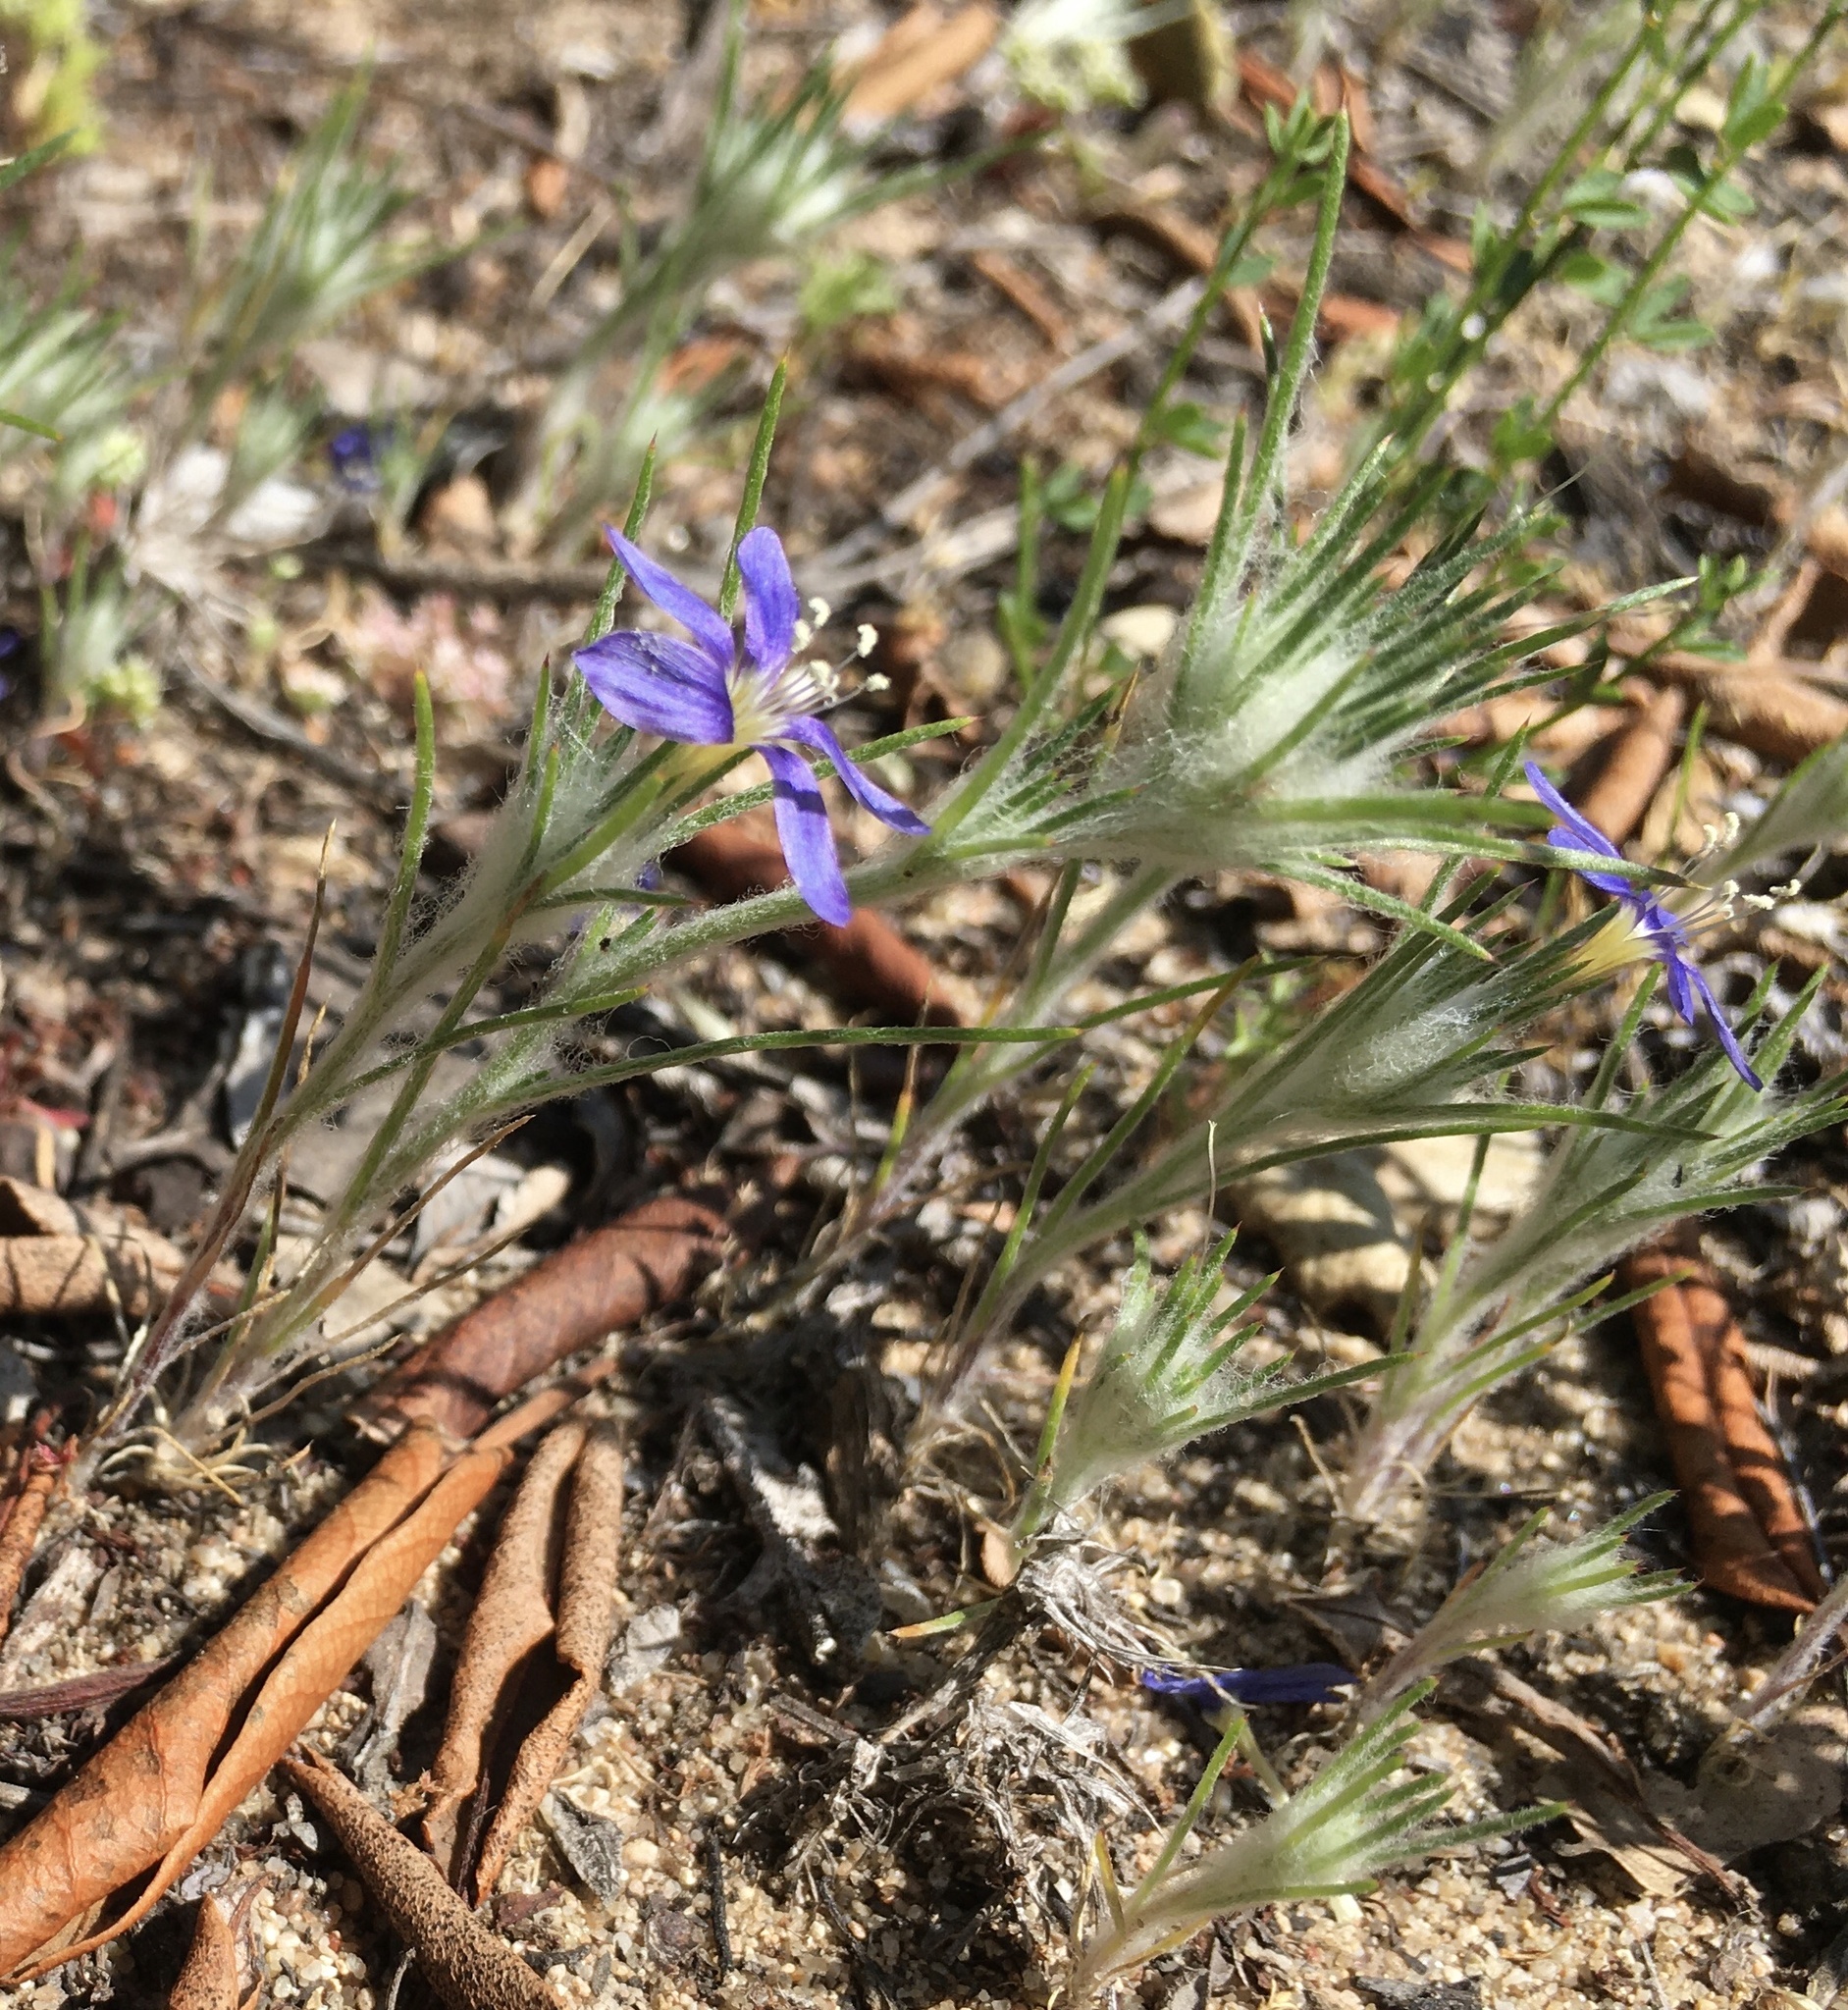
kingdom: Plantae
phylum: Tracheophyta
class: Magnoliopsida
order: Ericales
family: Polemoniaceae
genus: Eriastrum
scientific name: Eriastrum virgatum
